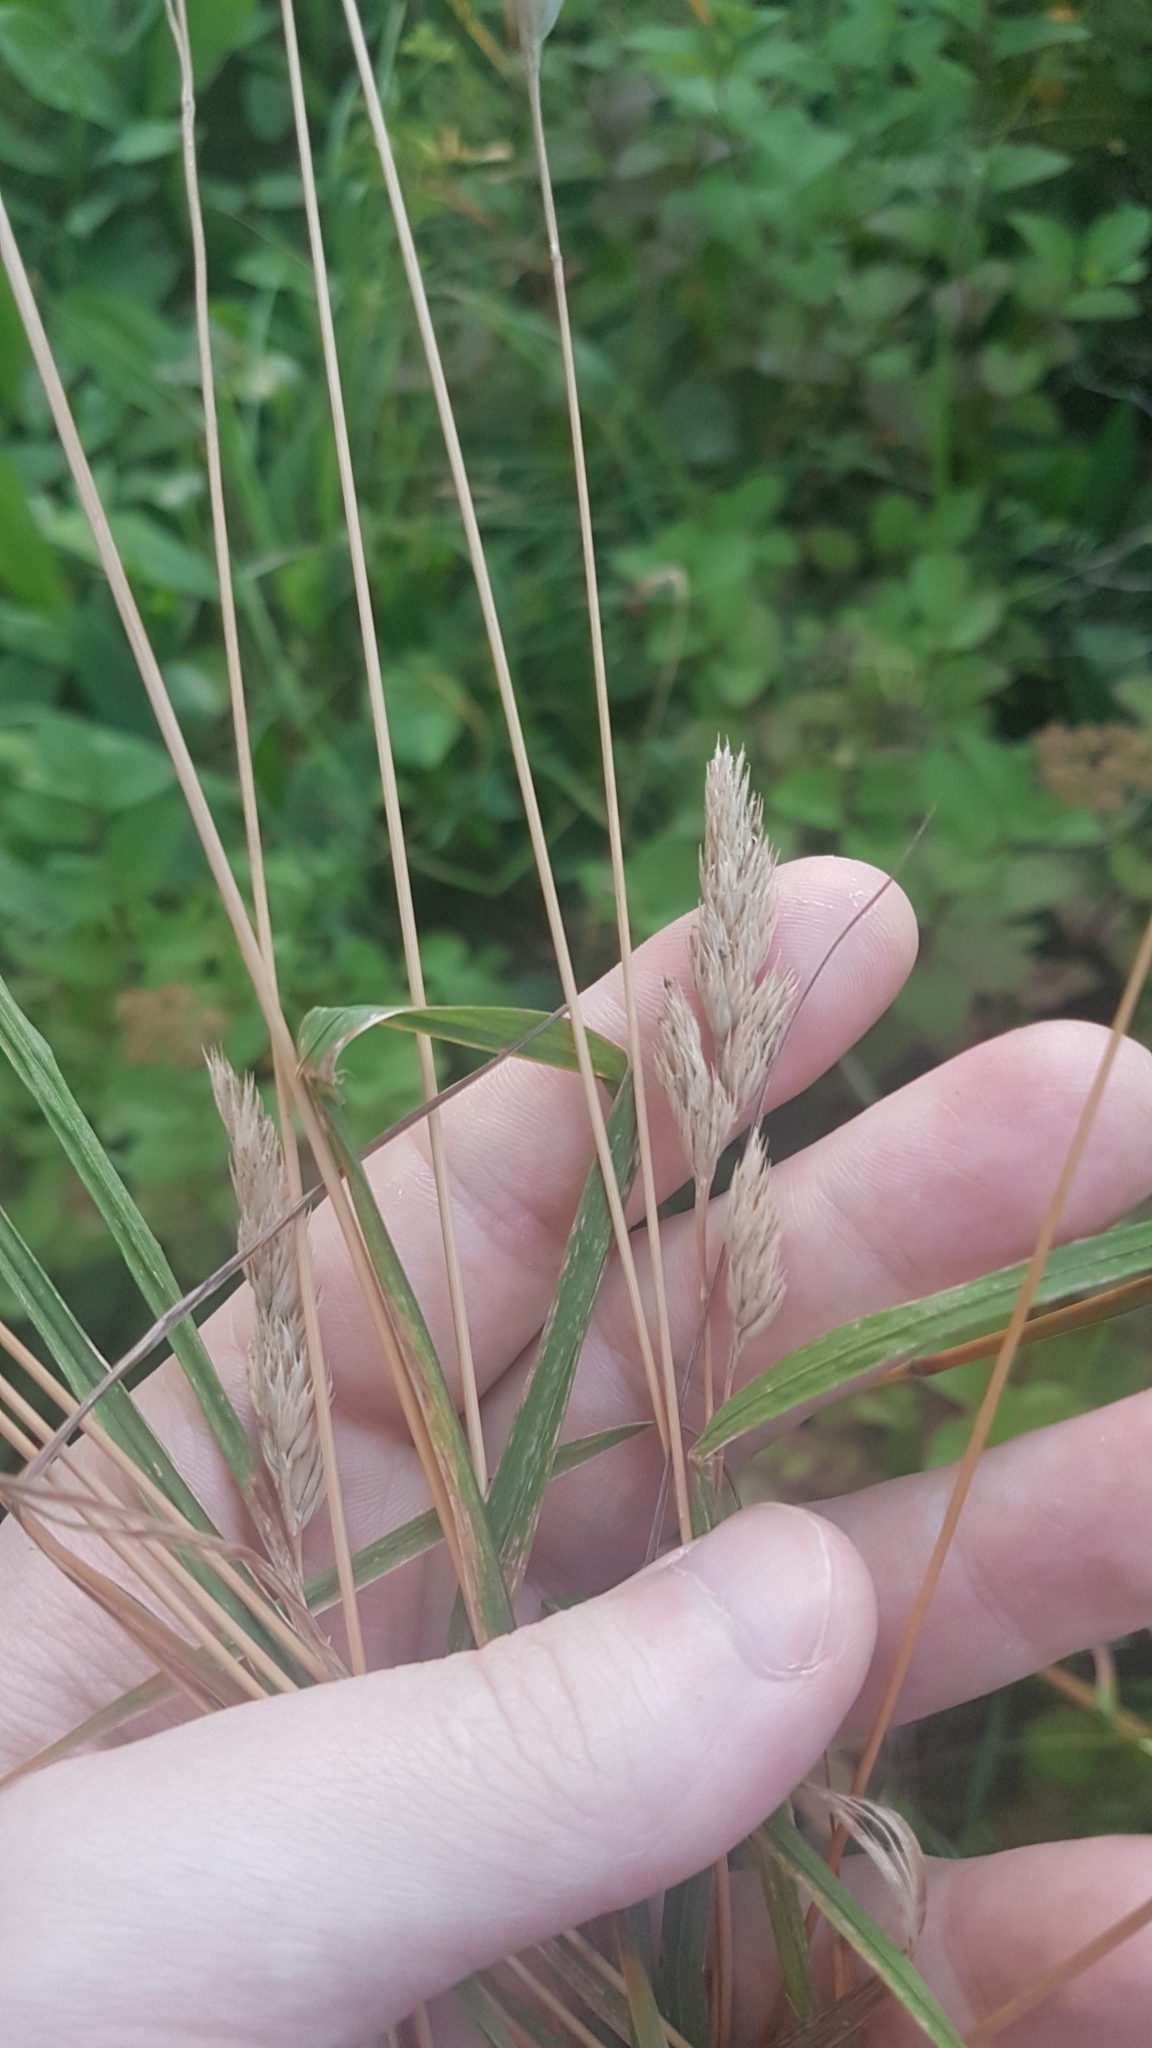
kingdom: Plantae
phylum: Tracheophyta
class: Liliopsida
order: Poales
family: Poaceae
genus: Dactylis
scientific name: Dactylis glomerata
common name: Orchardgrass
